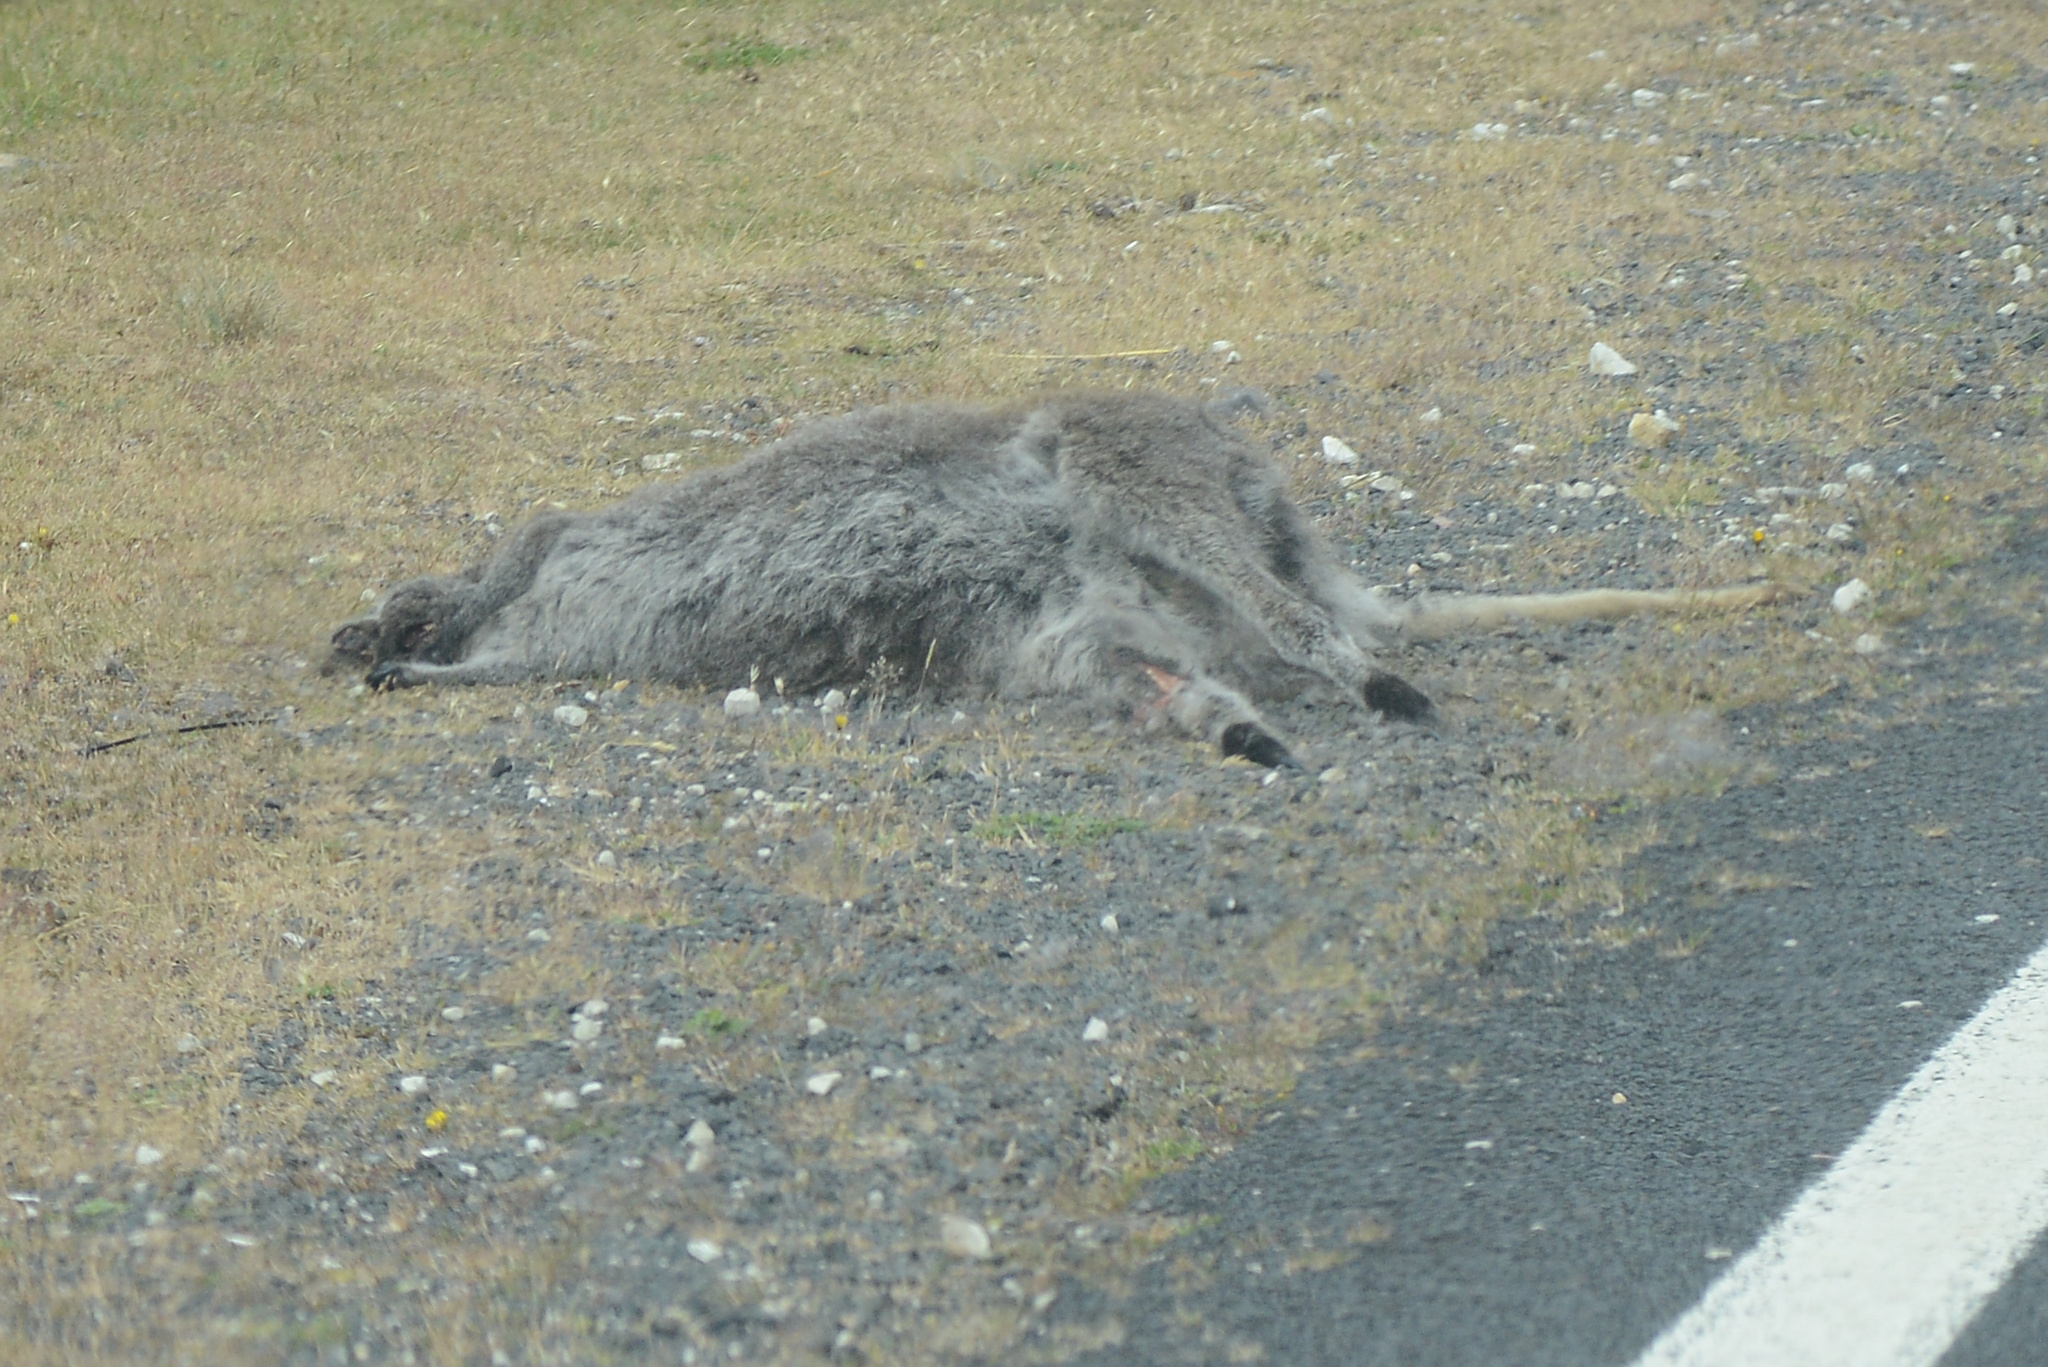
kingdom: Animalia
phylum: Chordata
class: Mammalia
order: Diprotodontia
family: Macropodidae
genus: Notamacropus
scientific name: Notamacropus rufogriseus
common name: Red-necked wallaby
